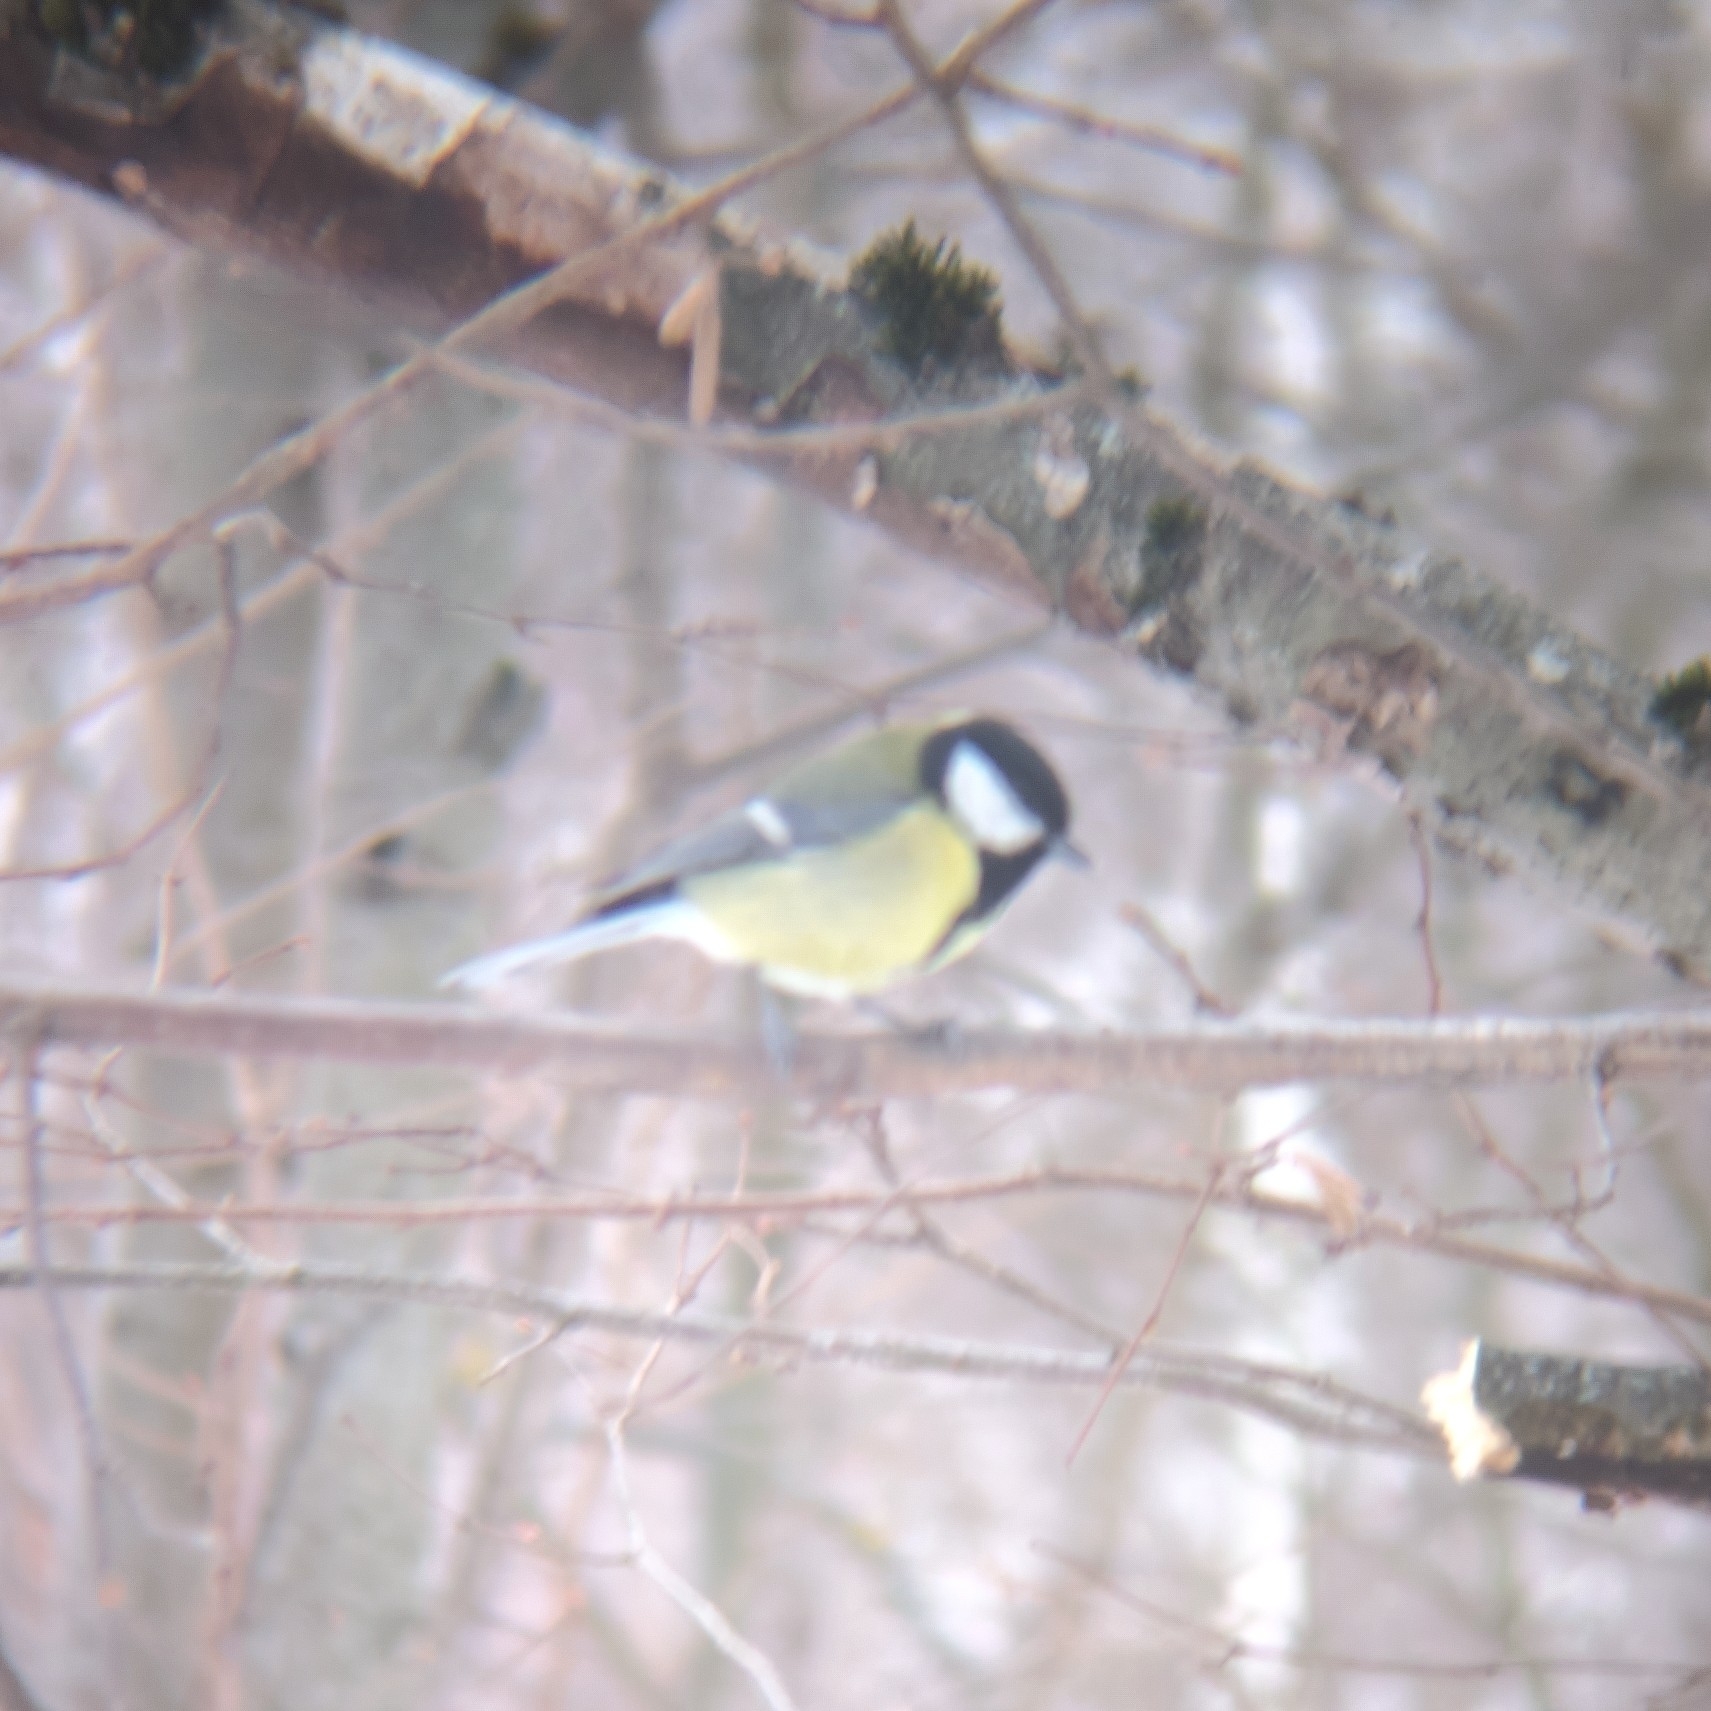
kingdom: Animalia
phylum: Chordata
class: Aves
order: Passeriformes
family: Paridae
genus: Parus
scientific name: Parus major
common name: Great tit
